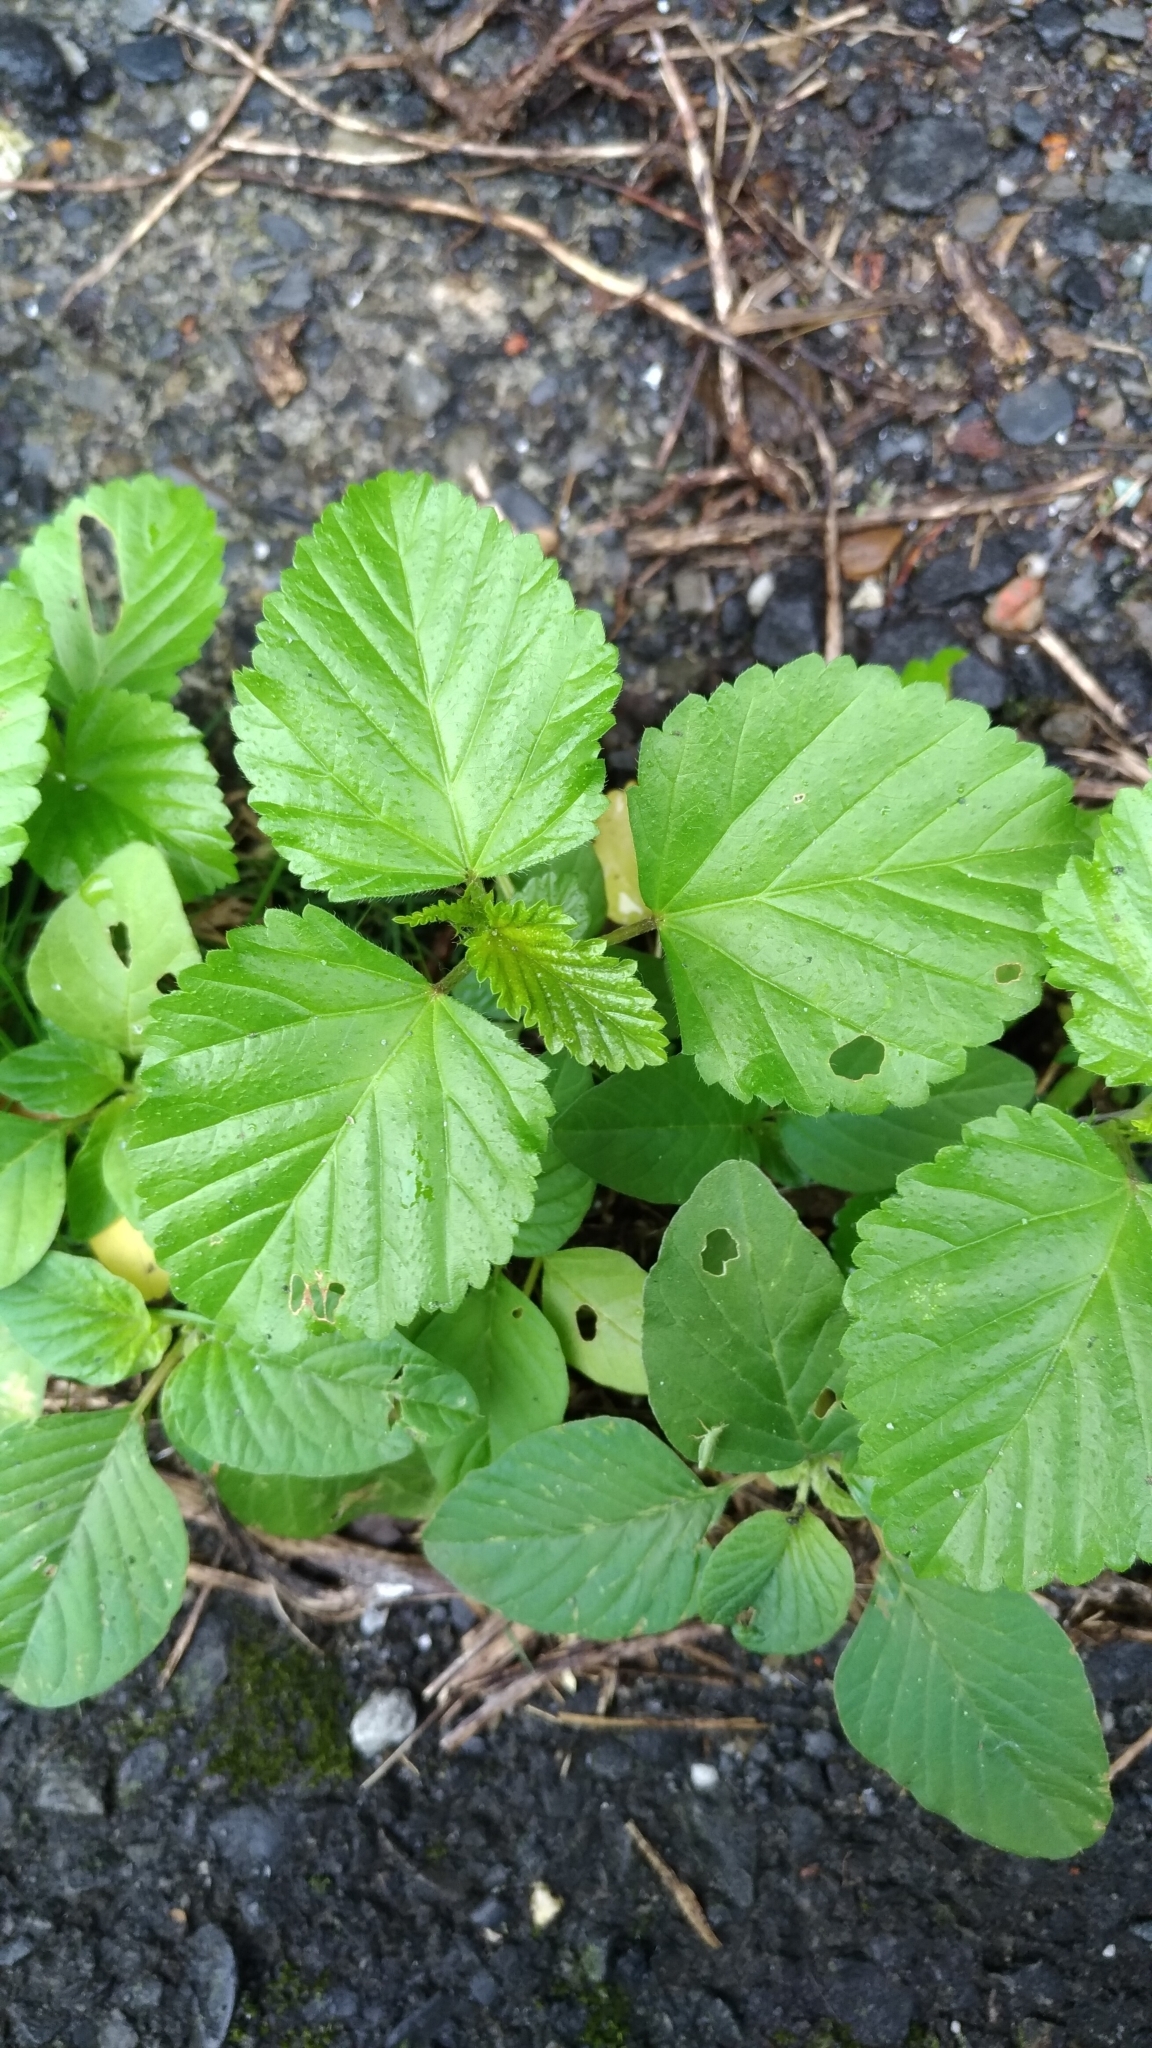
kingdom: Plantae
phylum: Tracheophyta
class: Magnoliopsida
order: Malvales
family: Malvaceae
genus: Malvastrum
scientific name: Malvastrum coromandelianum
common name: Threelobe false mallow
